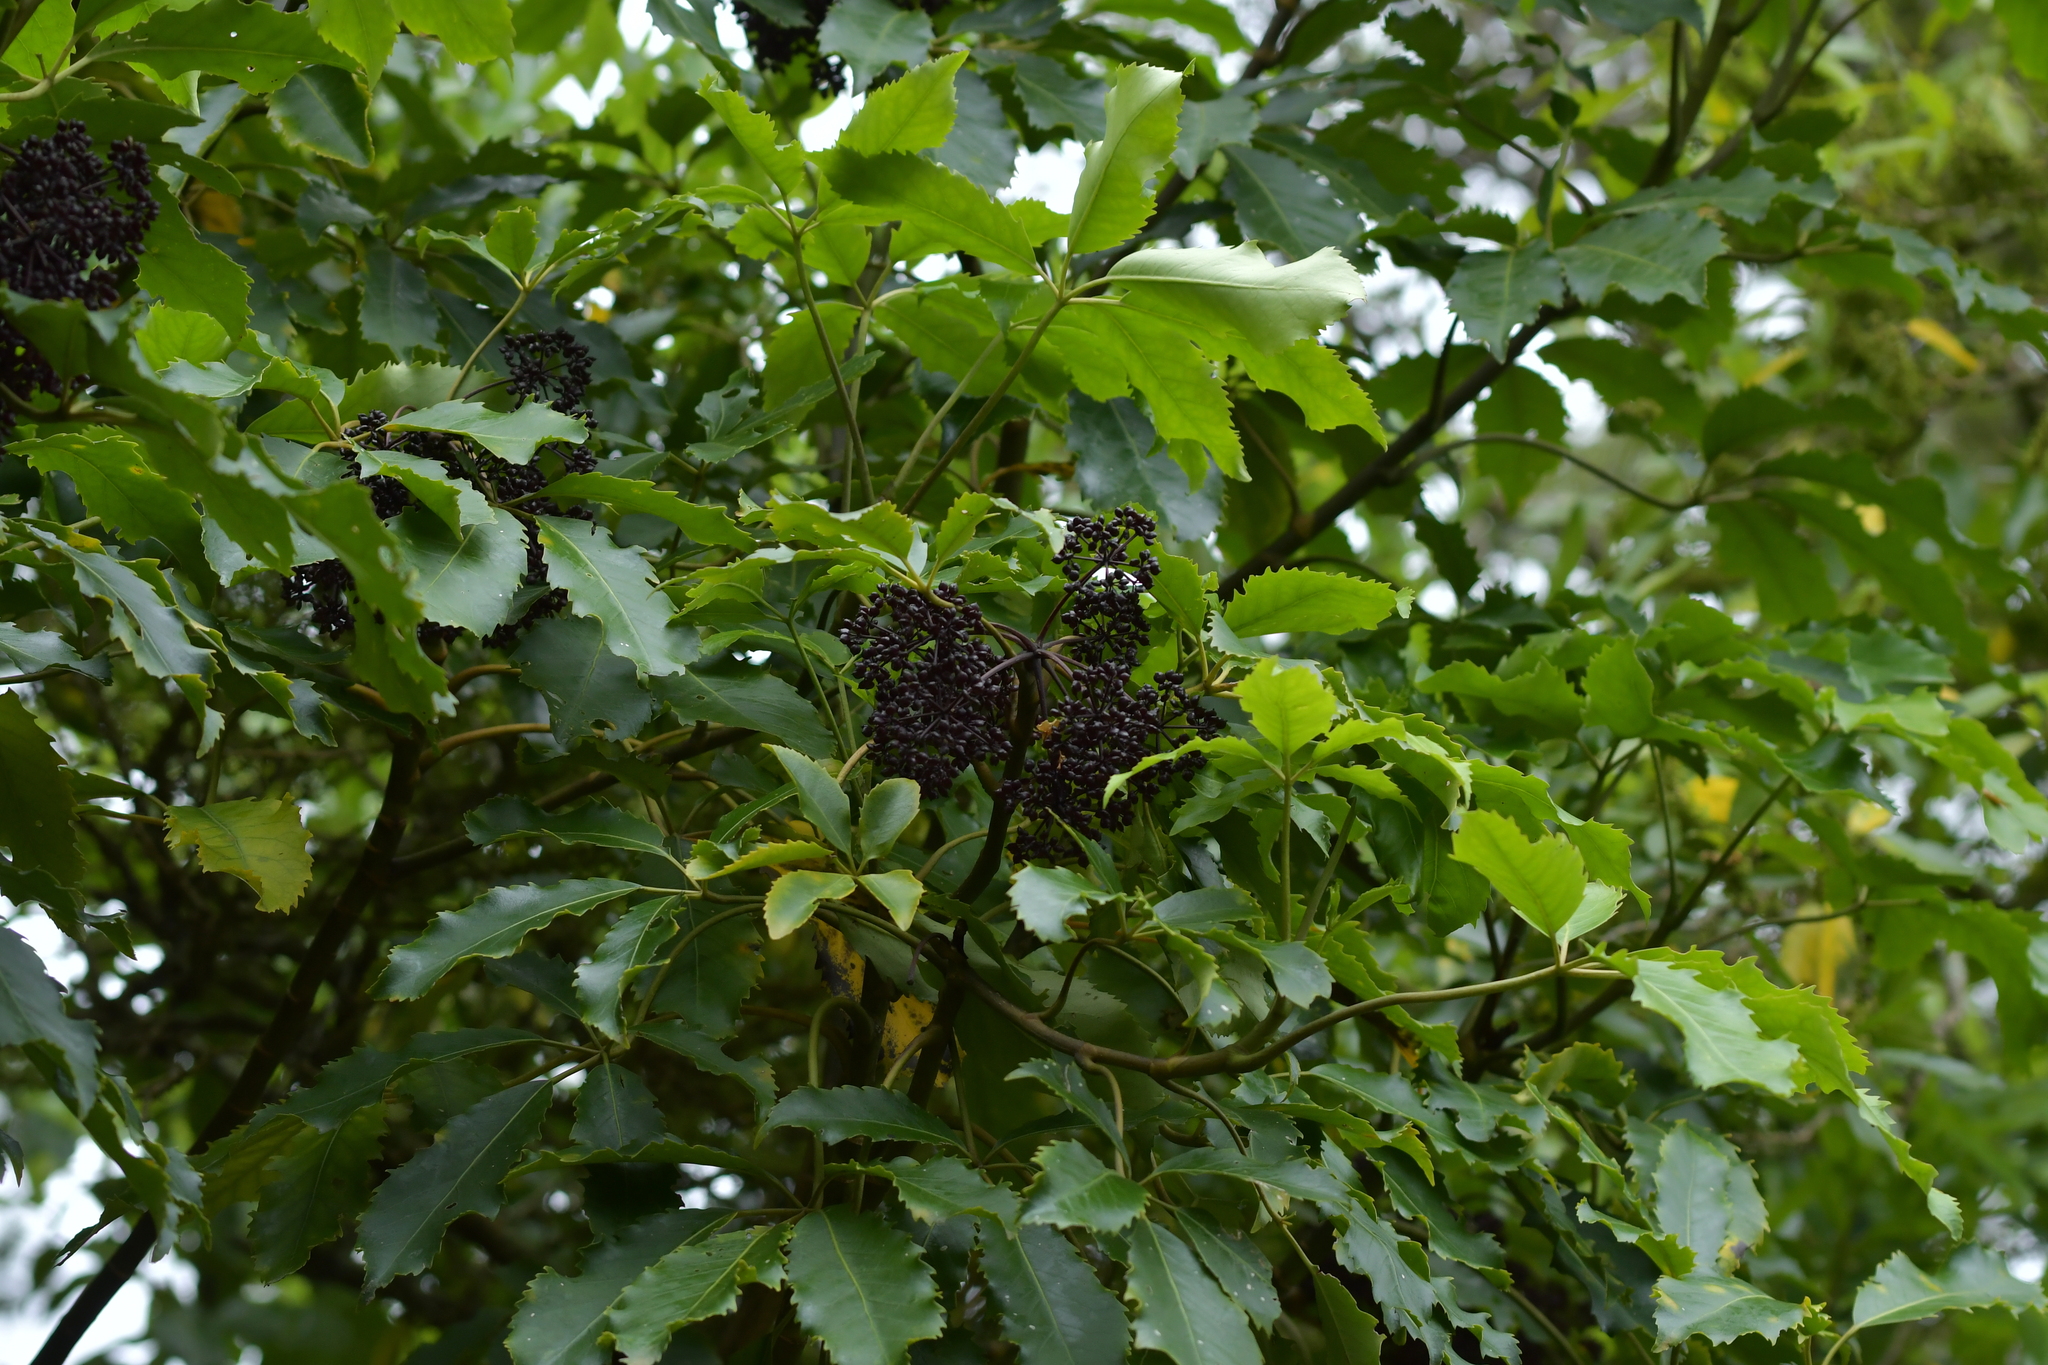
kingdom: Plantae
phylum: Tracheophyta
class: Magnoliopsida
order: Apiales
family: Araliaceae
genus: Neopanax
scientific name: Neopanax arboreus
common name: Five-fingers
